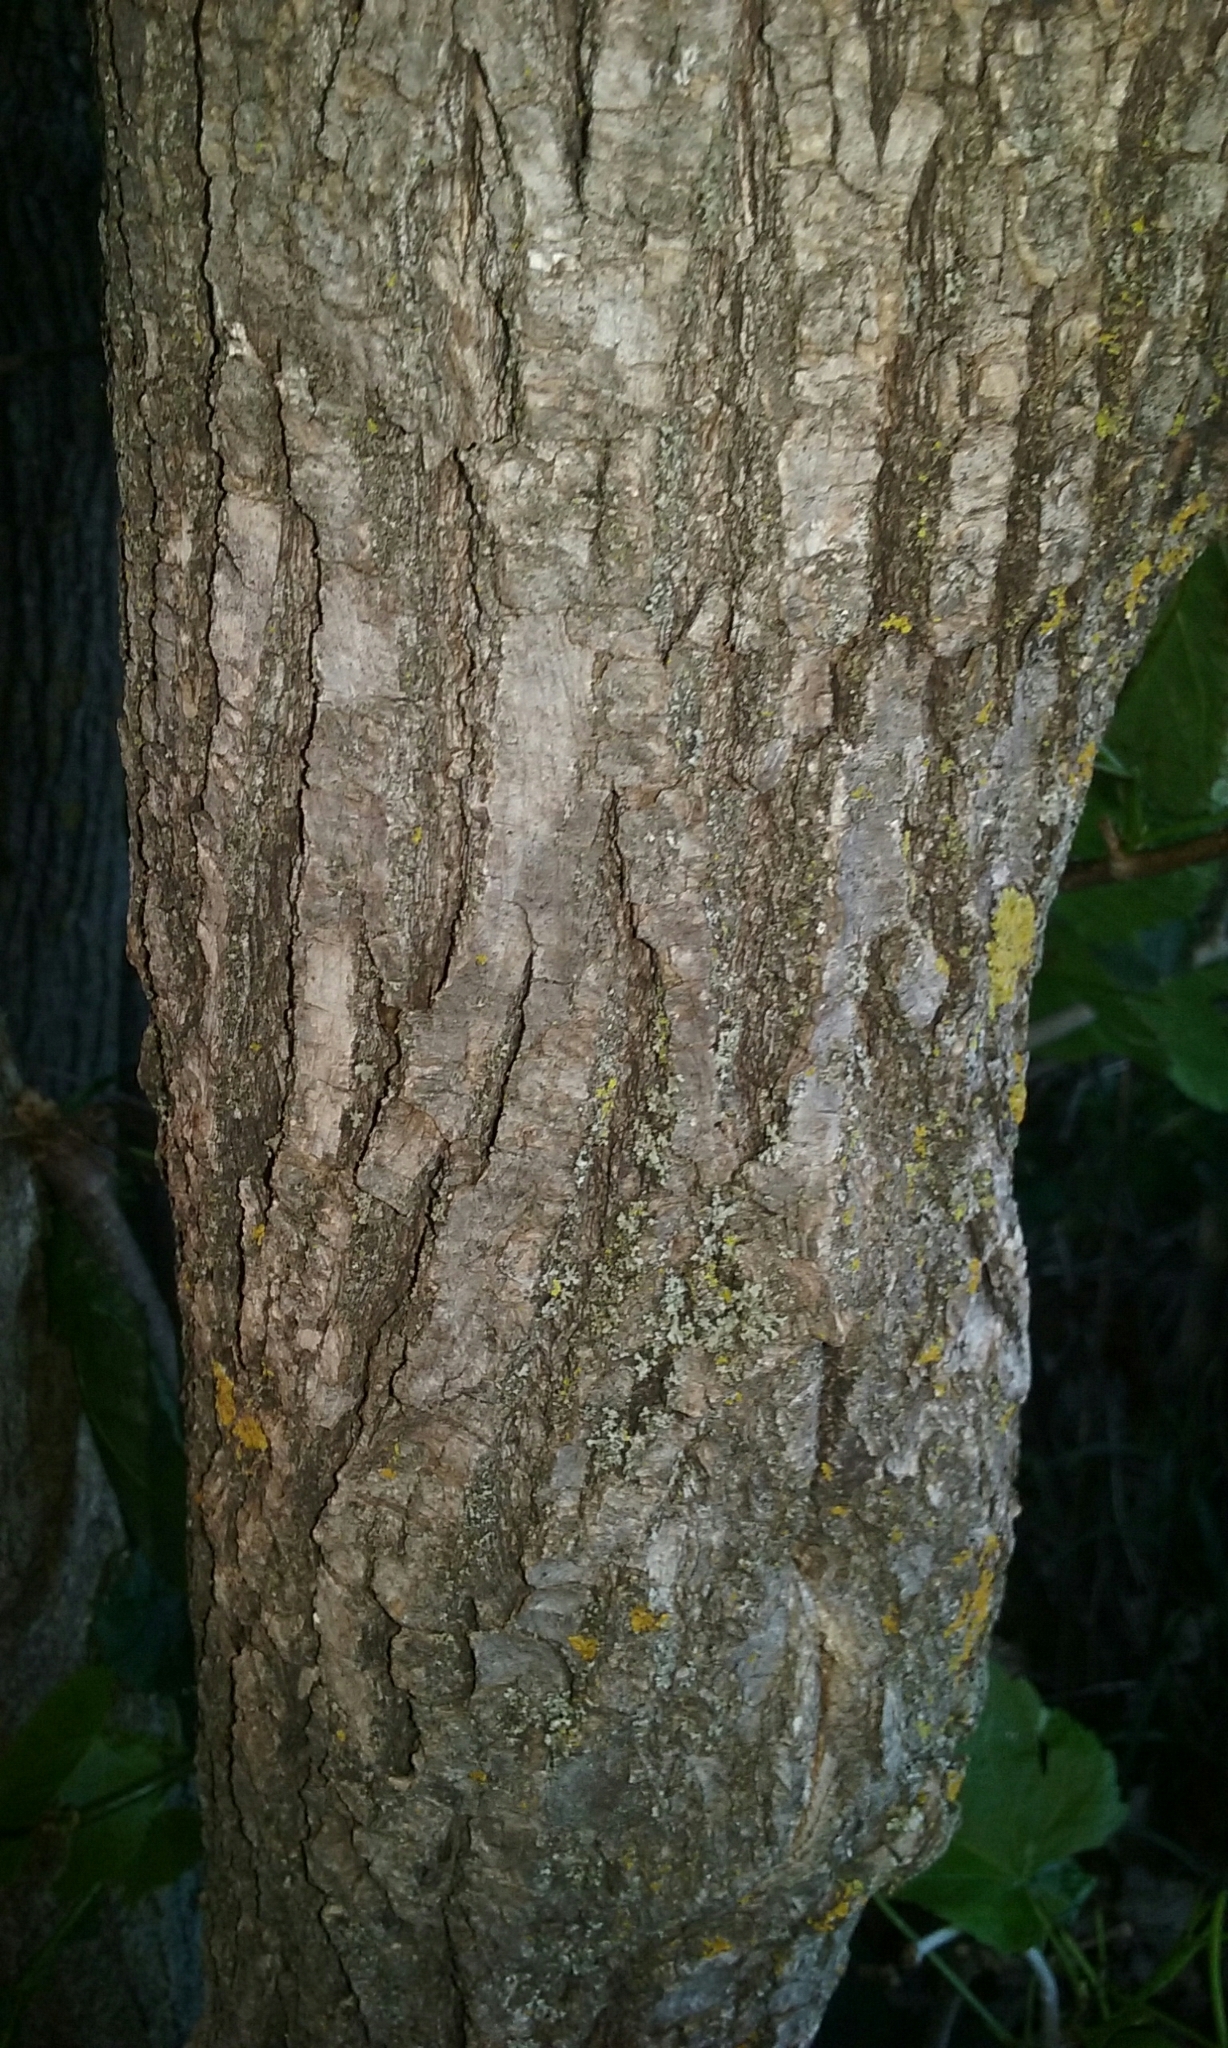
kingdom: Plantae
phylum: Tracheophyta
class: Magnoliopsida
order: Malvales
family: Malvaceae
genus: Tilia
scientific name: Tilia americana
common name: Basswood
